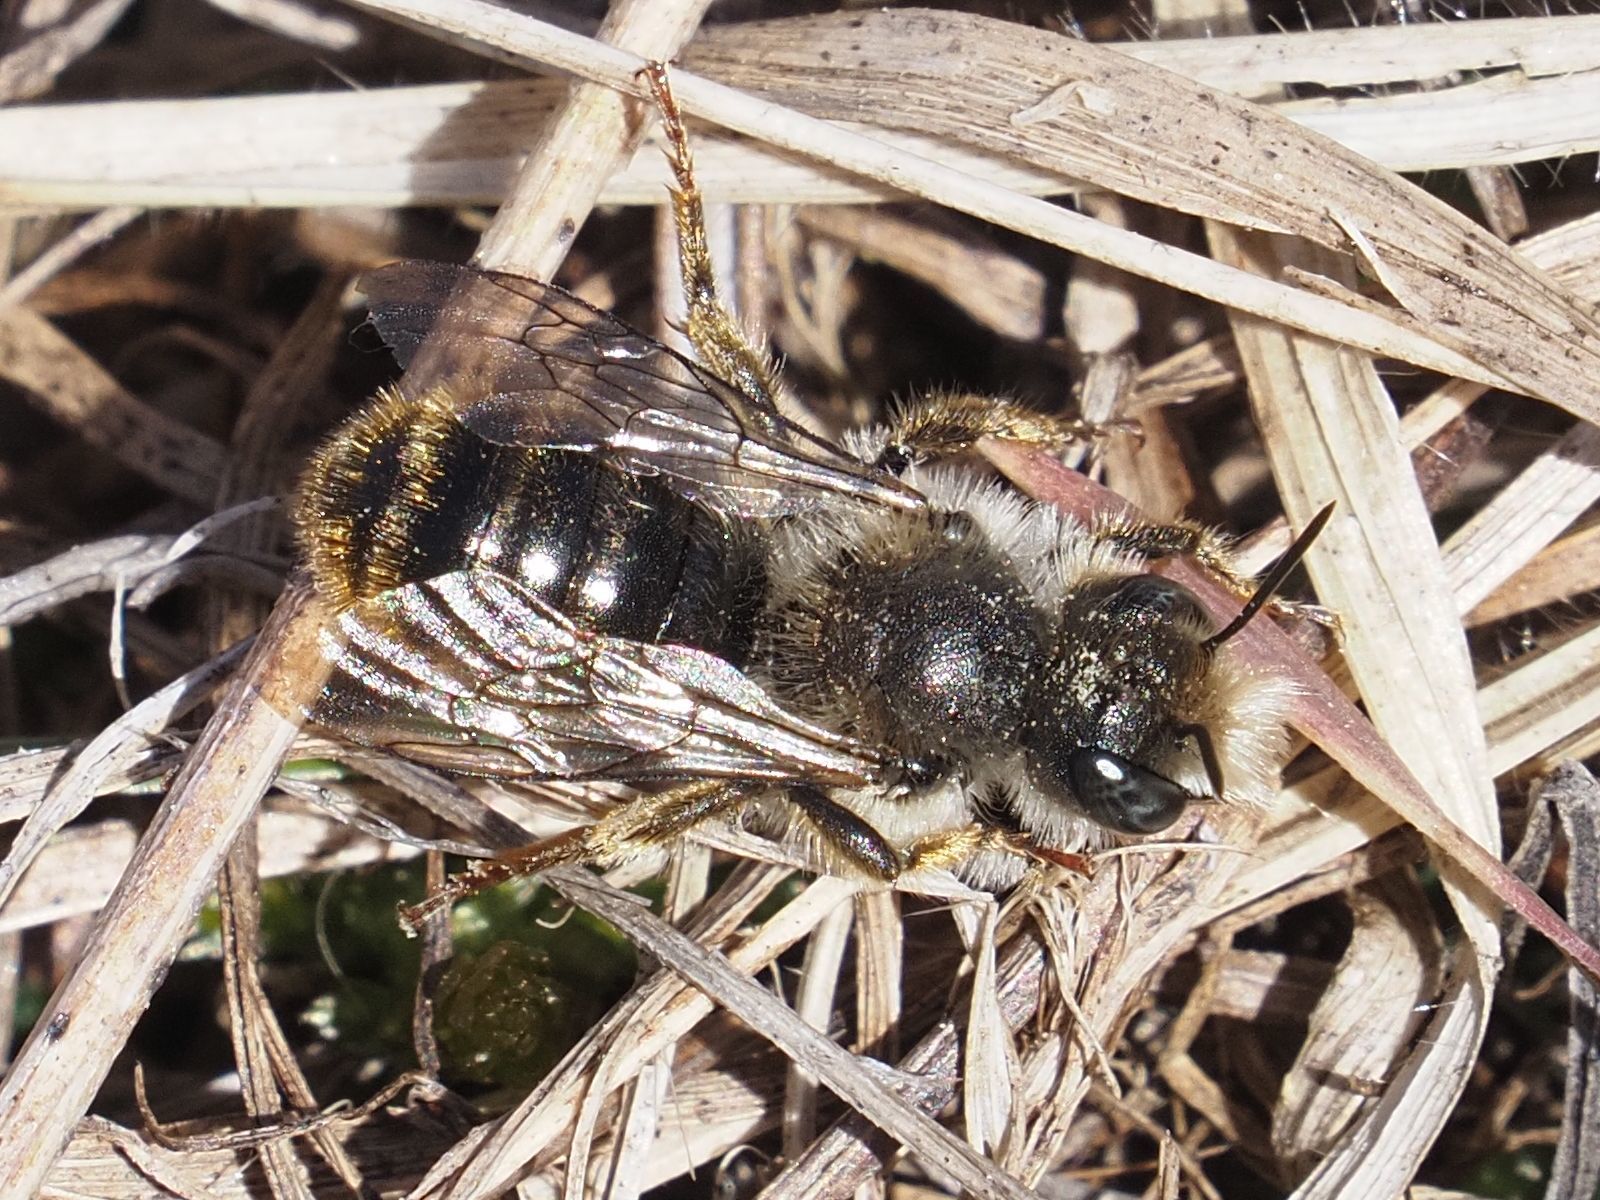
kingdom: Animalia
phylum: Arthropoda
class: Insecta
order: Hymenoptera
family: Megachilidae
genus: Osmia
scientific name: Osmia bicolor
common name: Red-tailed mason bee
